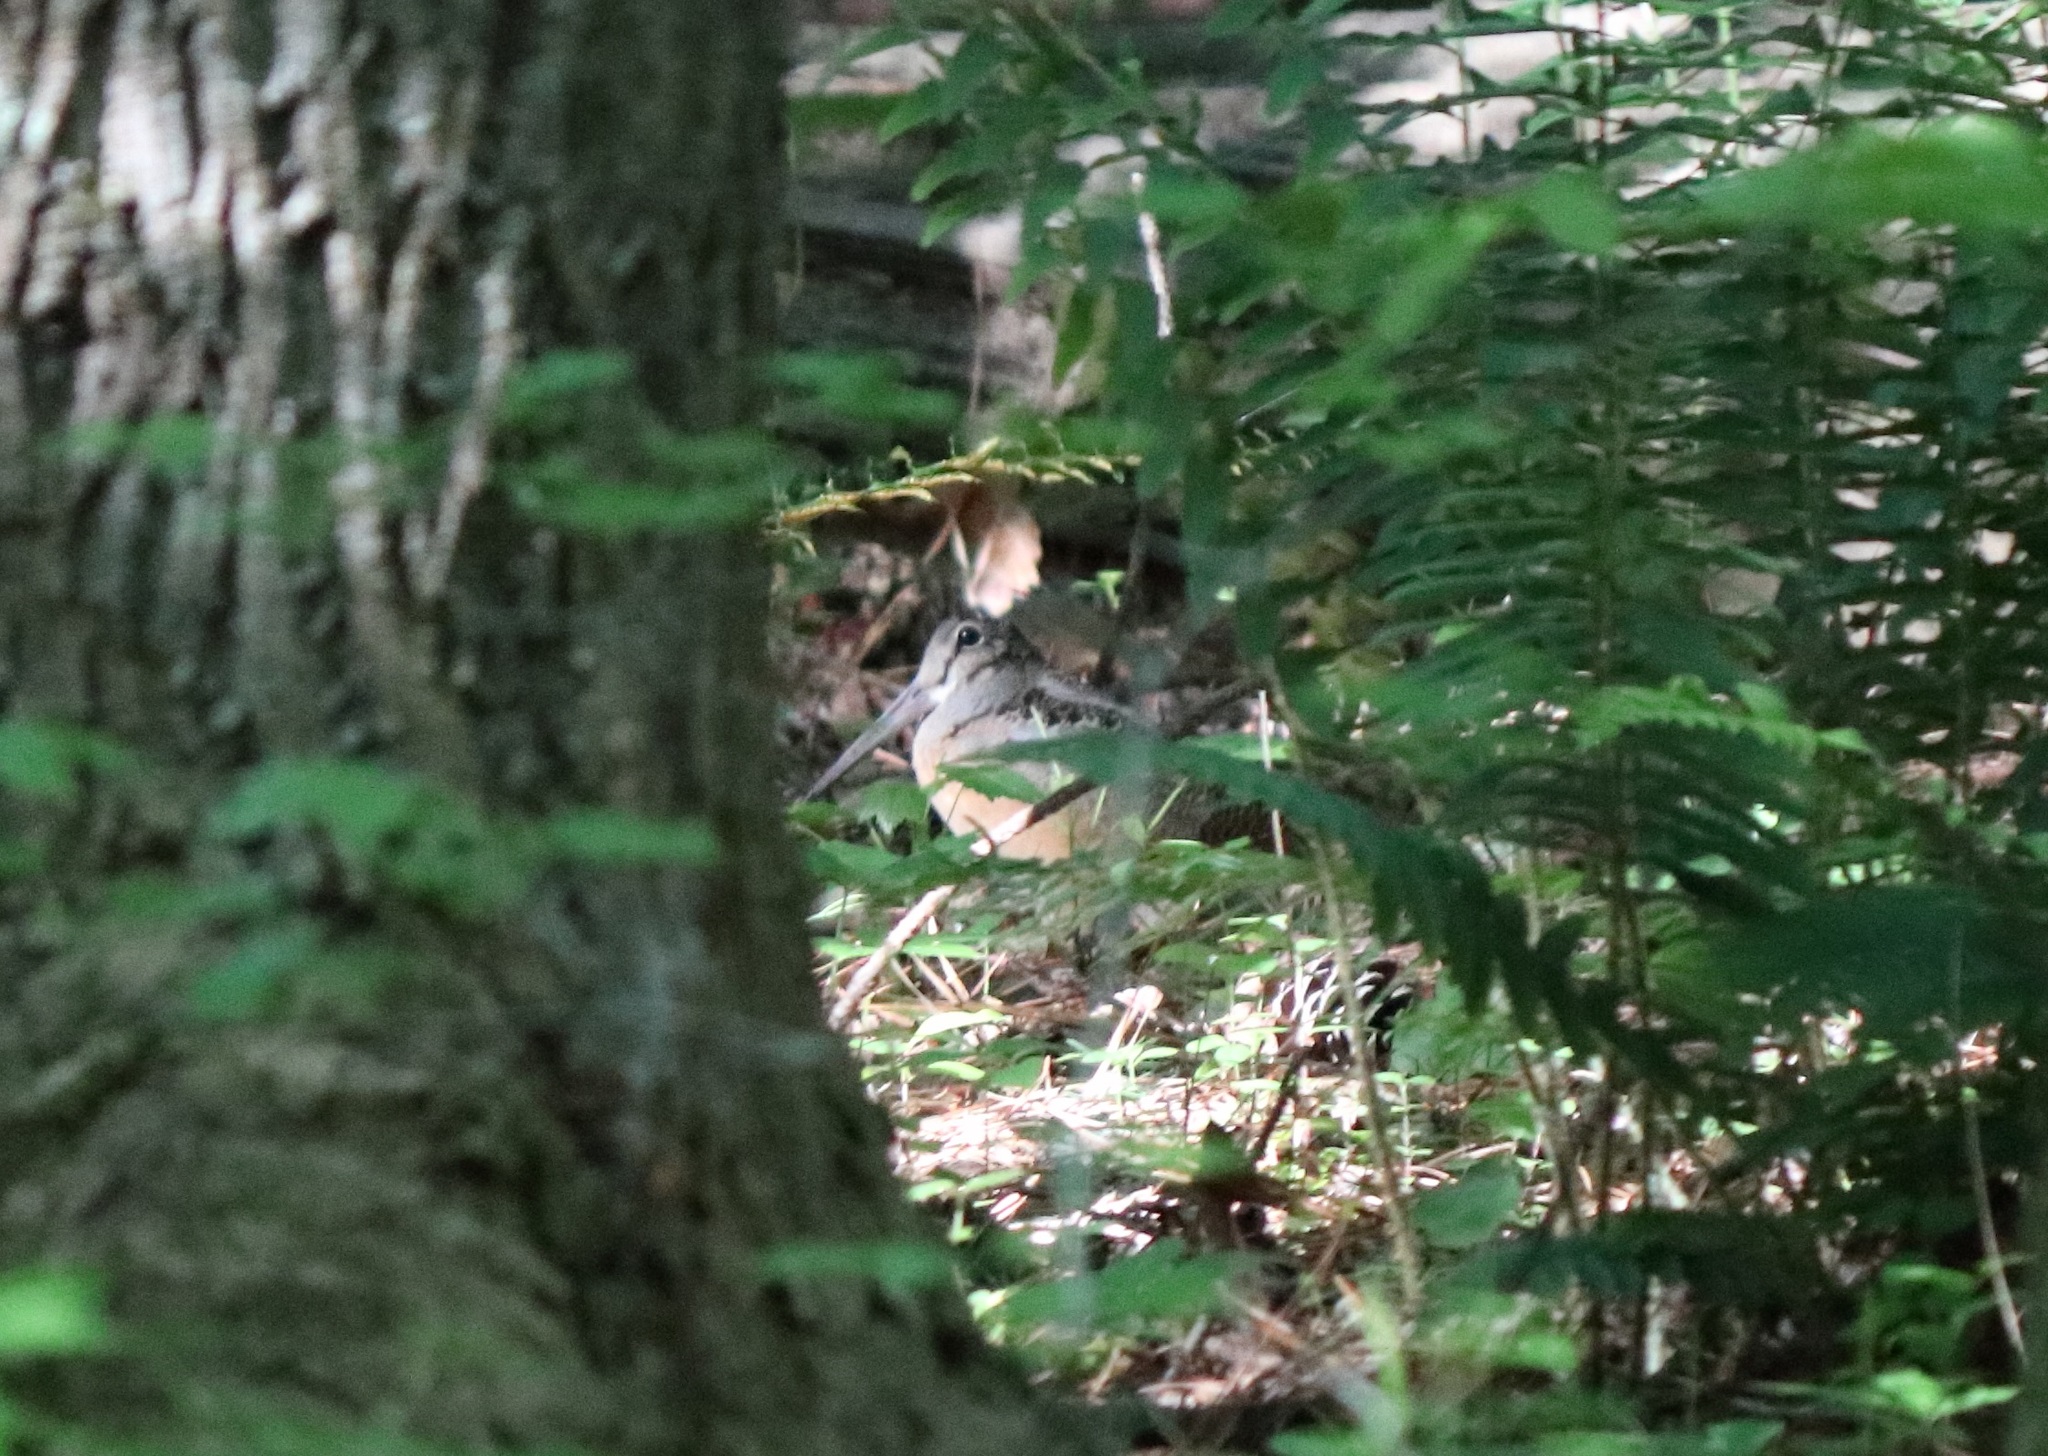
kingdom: Animalia
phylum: Chordata
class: Aves
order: Charadriiformes
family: Scolopacidae
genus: Scolopax
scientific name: Scolopax minor
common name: American woodcock
